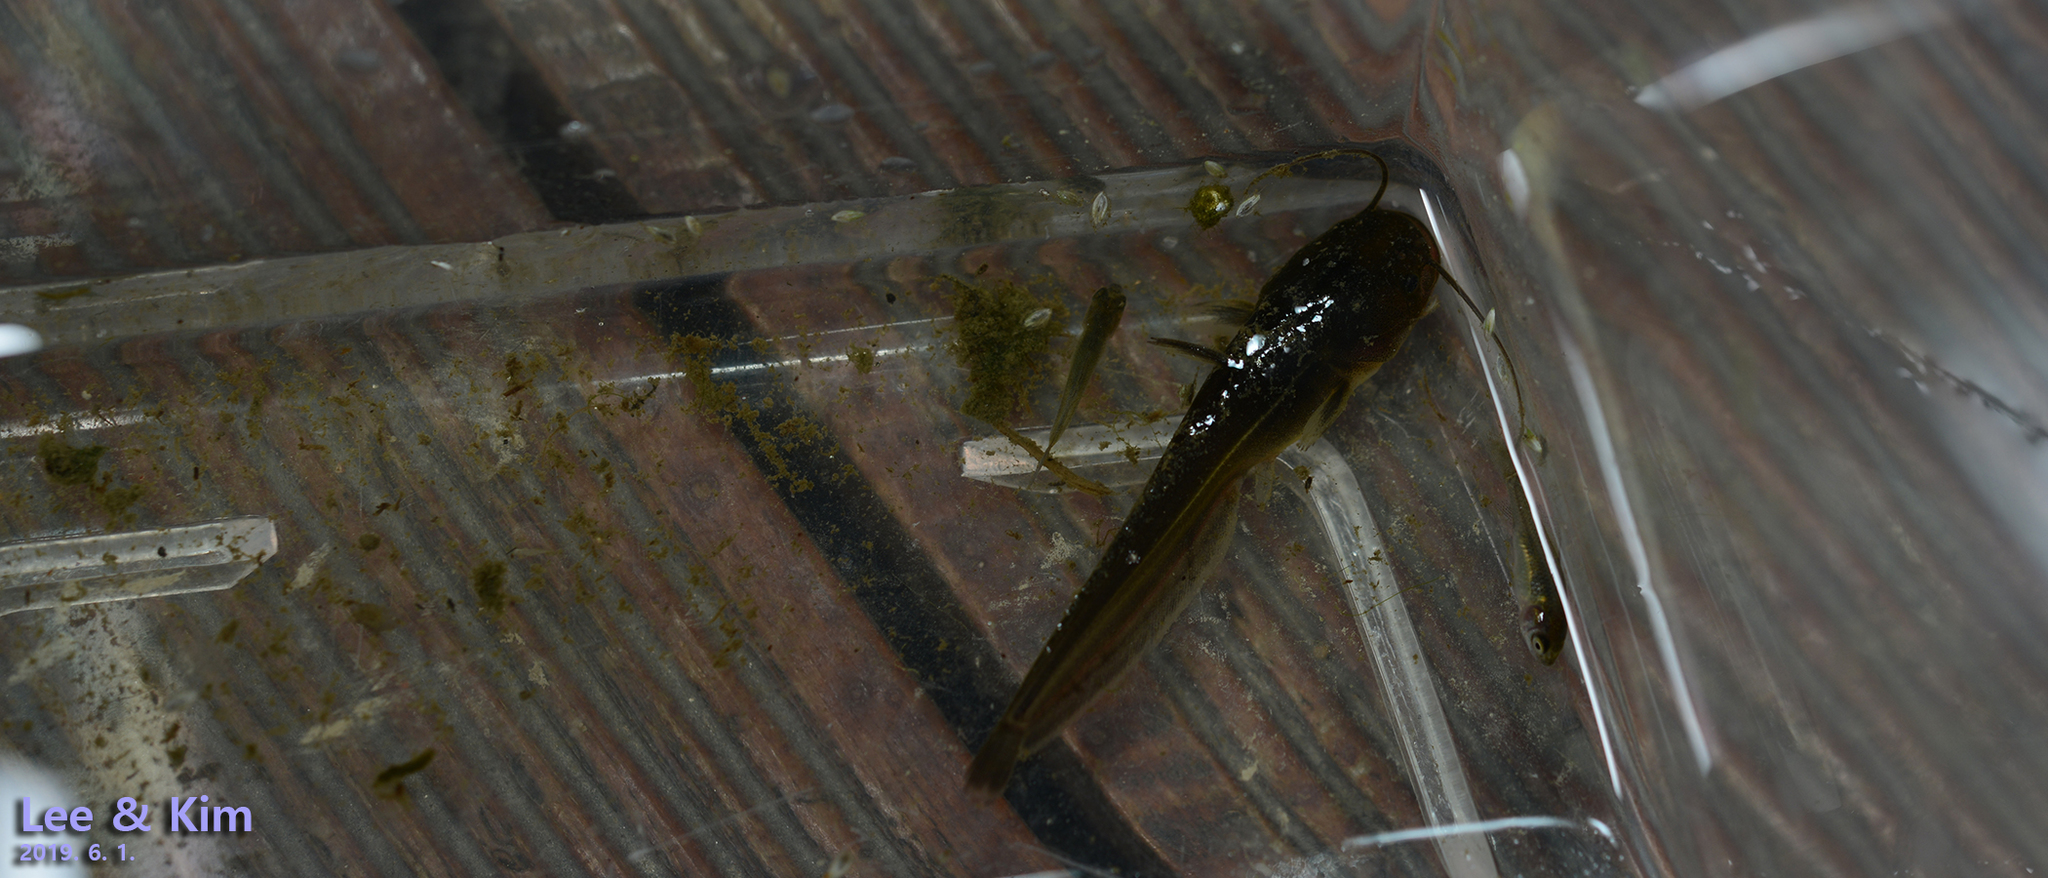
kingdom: Animalia
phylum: Chordata
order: Siluriformes
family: Siluridae
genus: Silurus
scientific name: Silurus asotus
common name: Amur catfish
